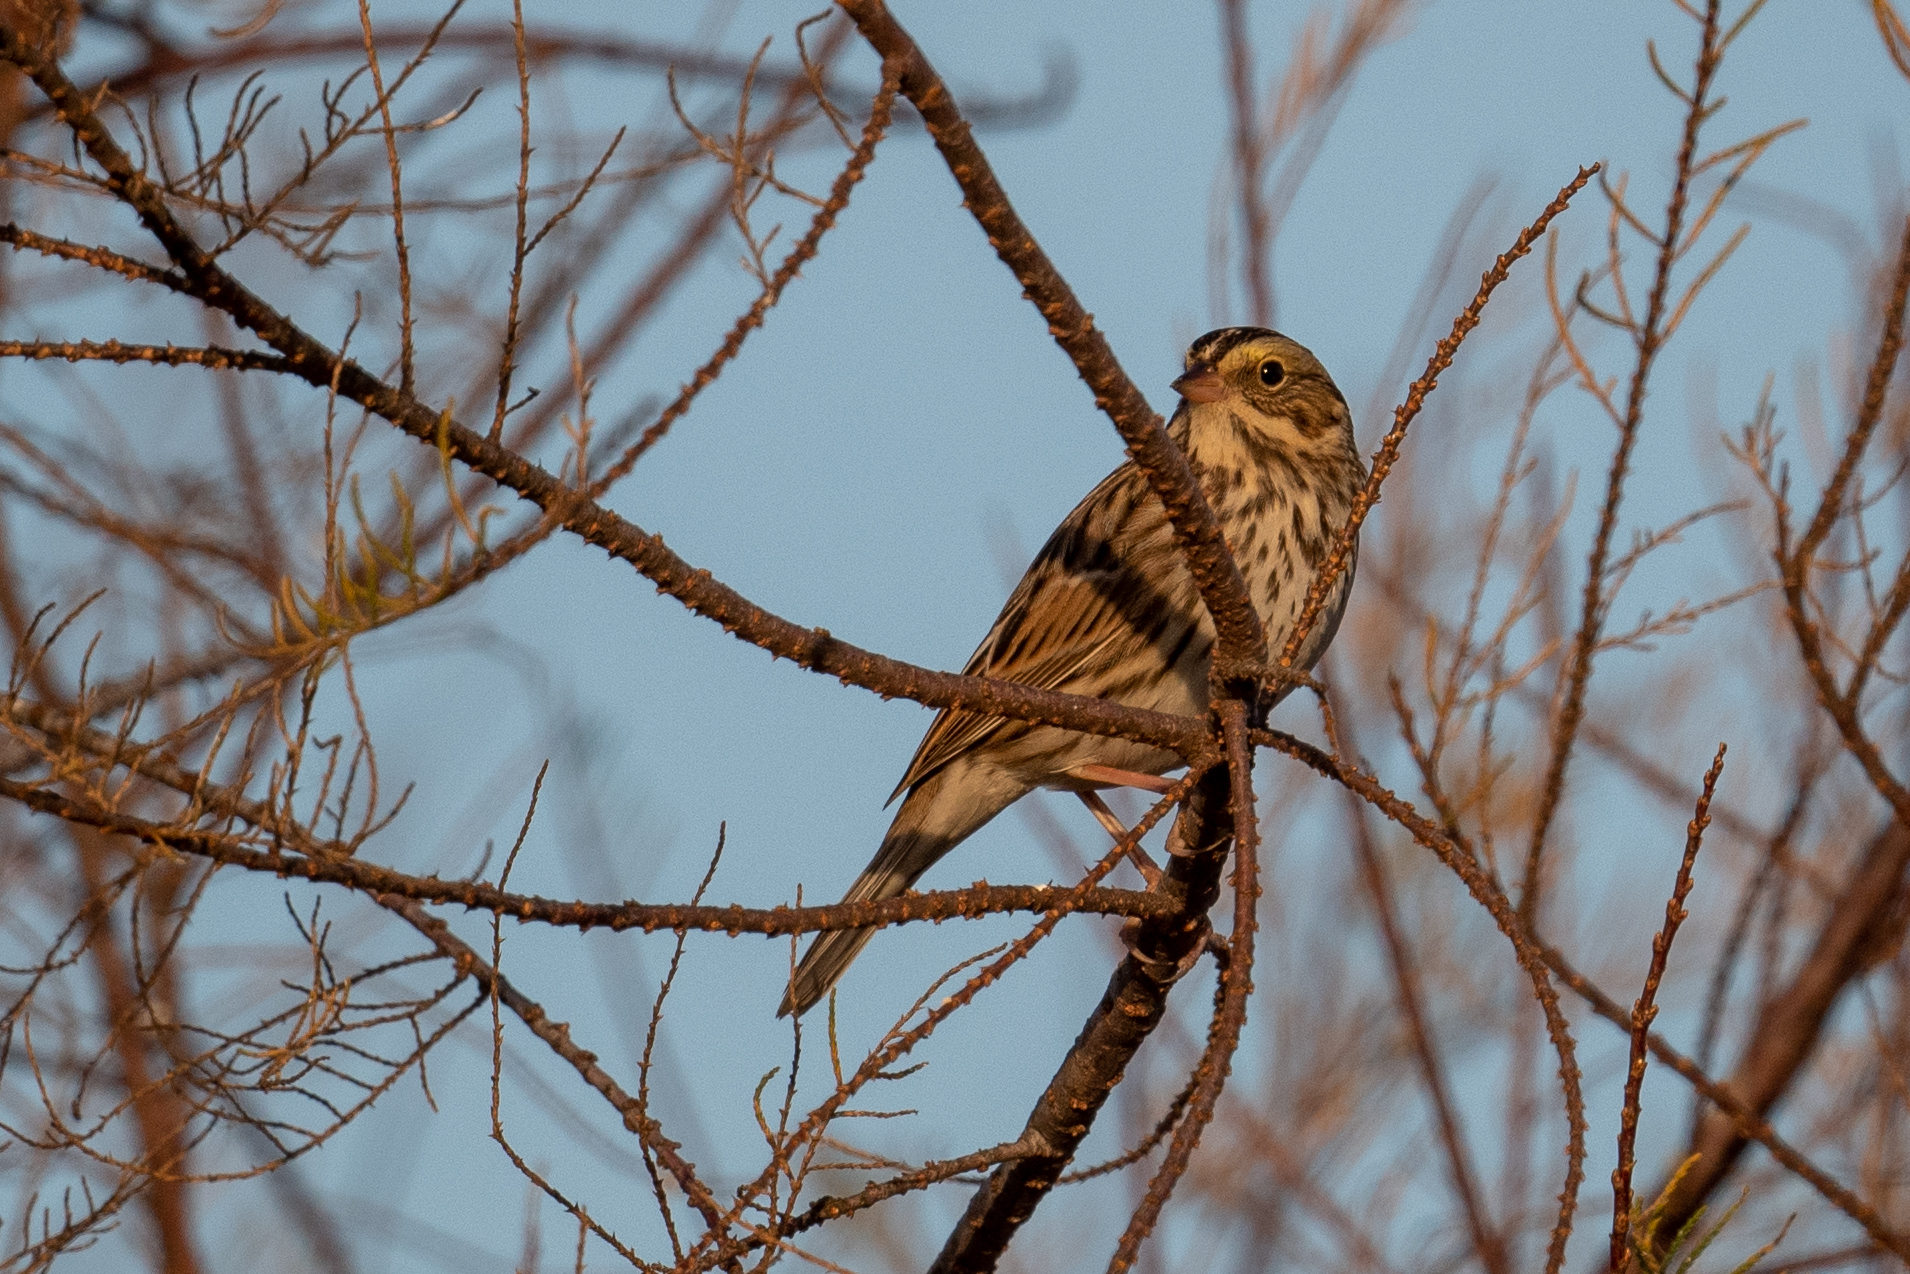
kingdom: Animalia
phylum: Chordata
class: Aves
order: Passeriformes
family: Passerellidae
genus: Passerculus
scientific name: Passerculus sandwichensis
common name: Savannah sparrow
